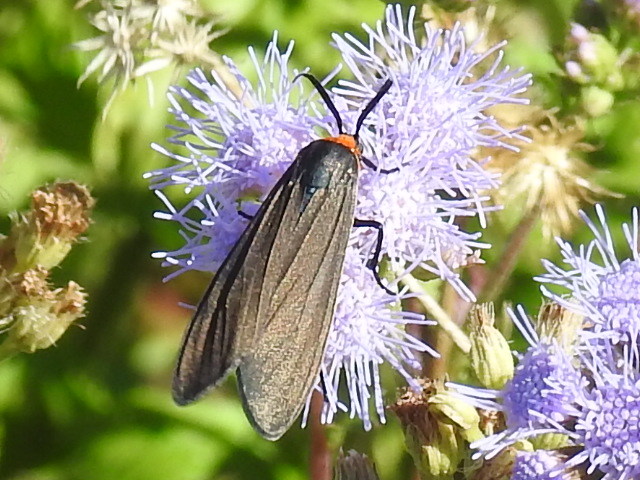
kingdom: Animalia
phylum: Arthropoda
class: Insecta
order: Lepidoptera
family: Erebidae
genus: Cisseps
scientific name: Cisseps fulvicollis
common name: Yellow-collared scape moth
